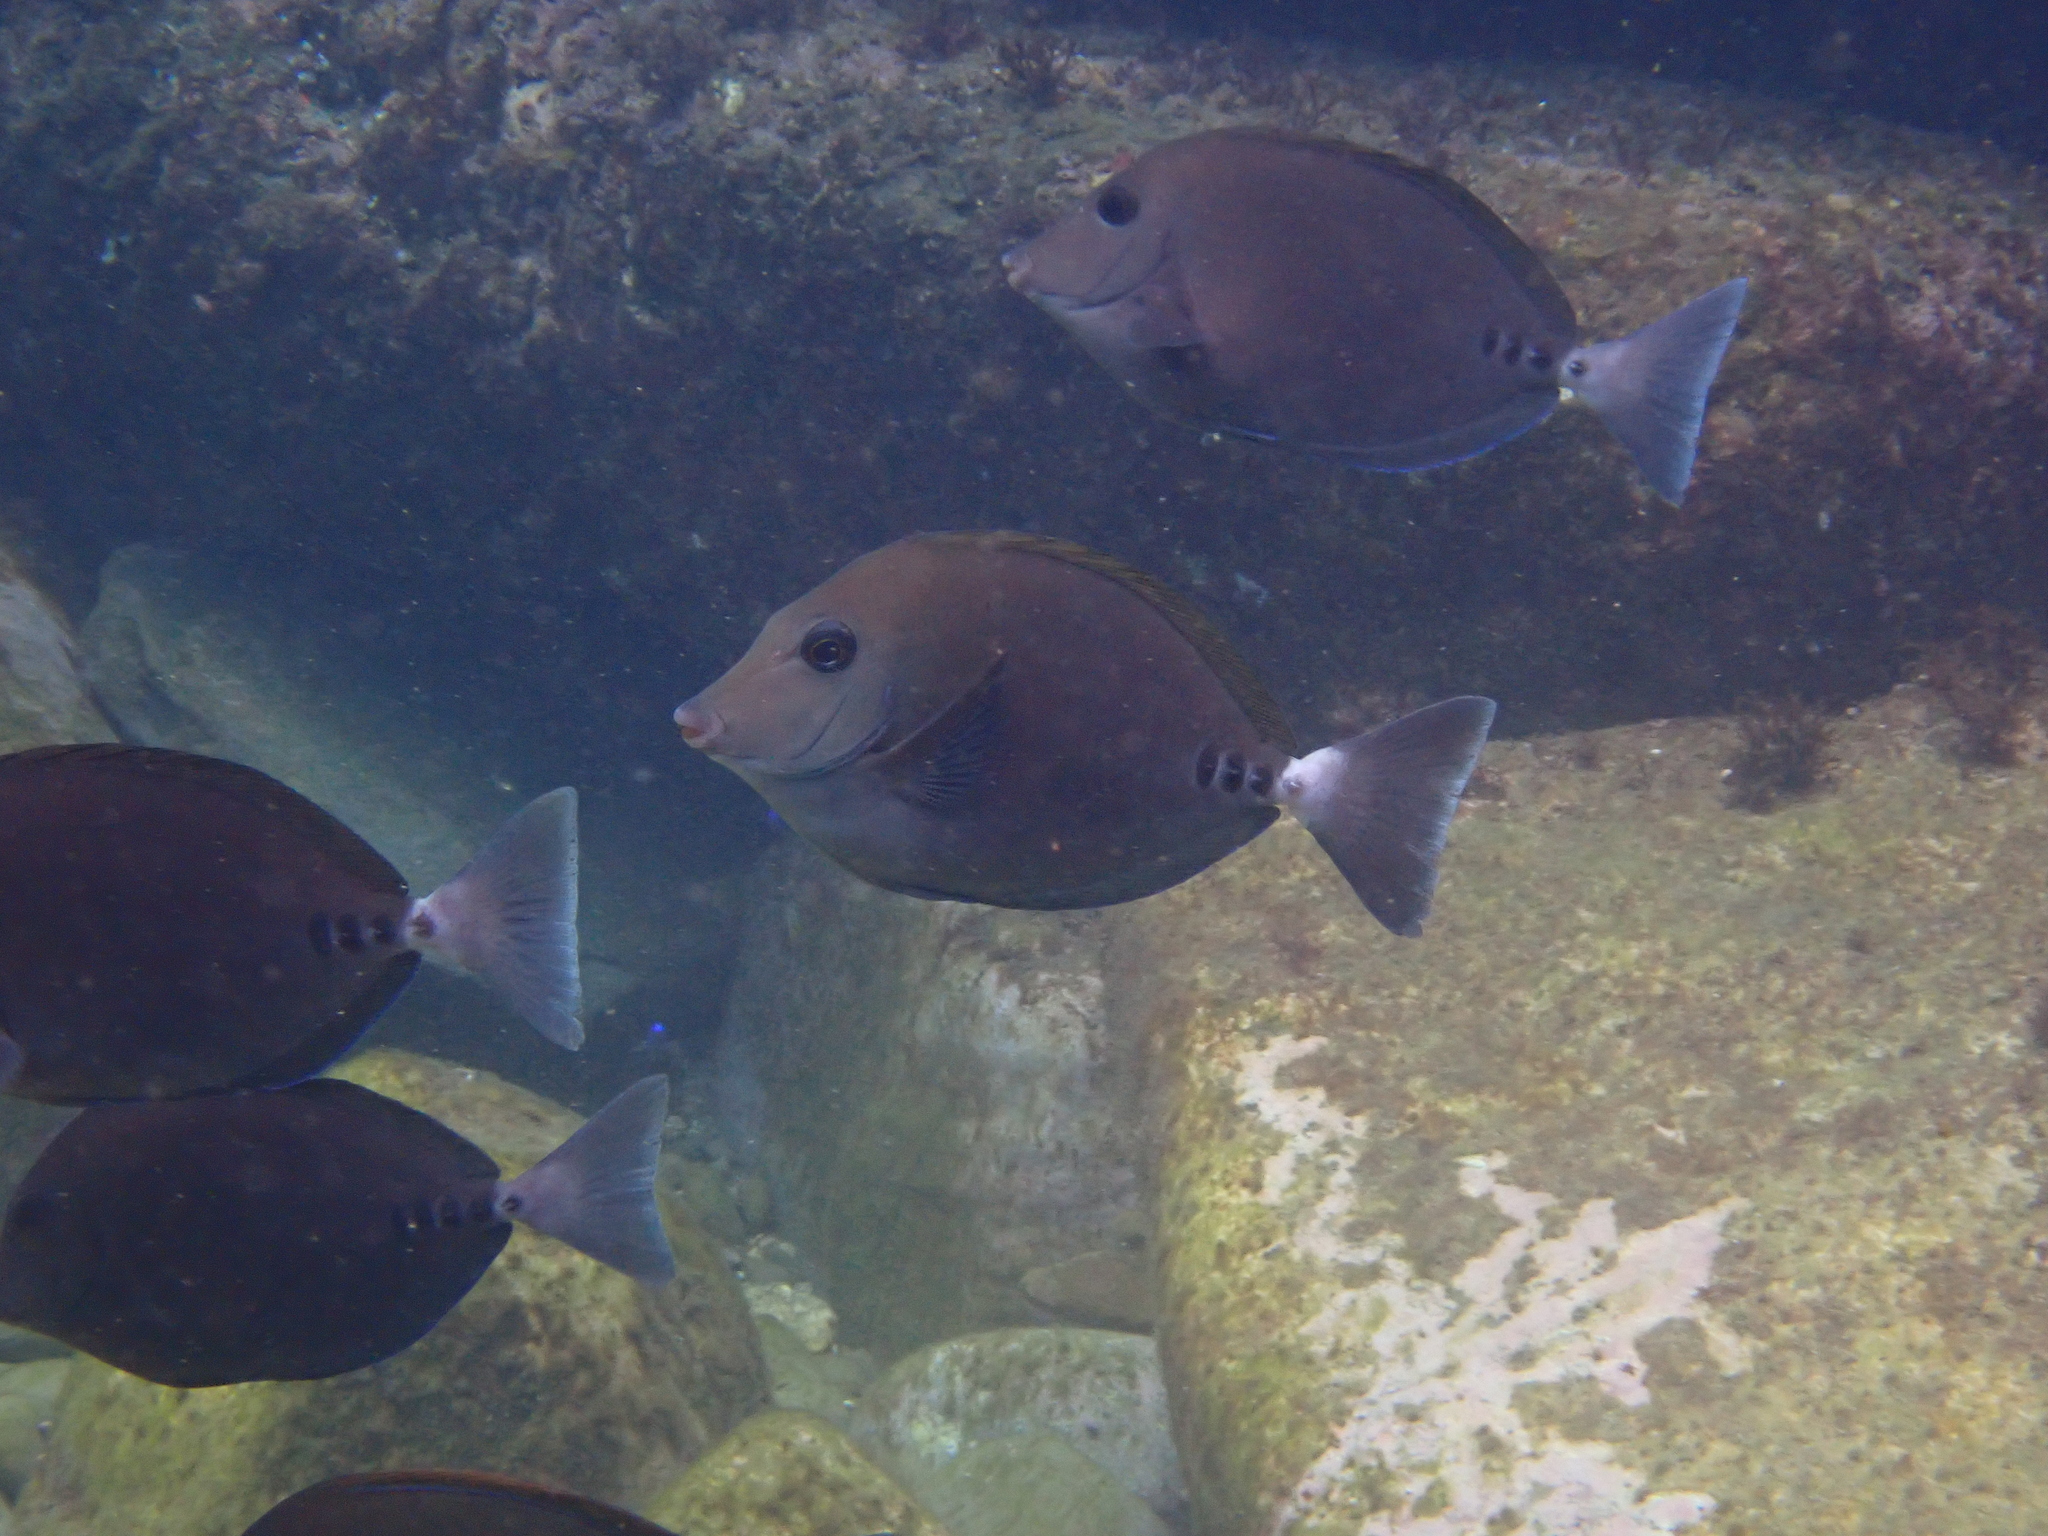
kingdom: Animalia
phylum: Chordata
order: Perciformes
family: Acanthuridae
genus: Prionurus
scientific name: Prionurus scalprum
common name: Japanese sawtail
